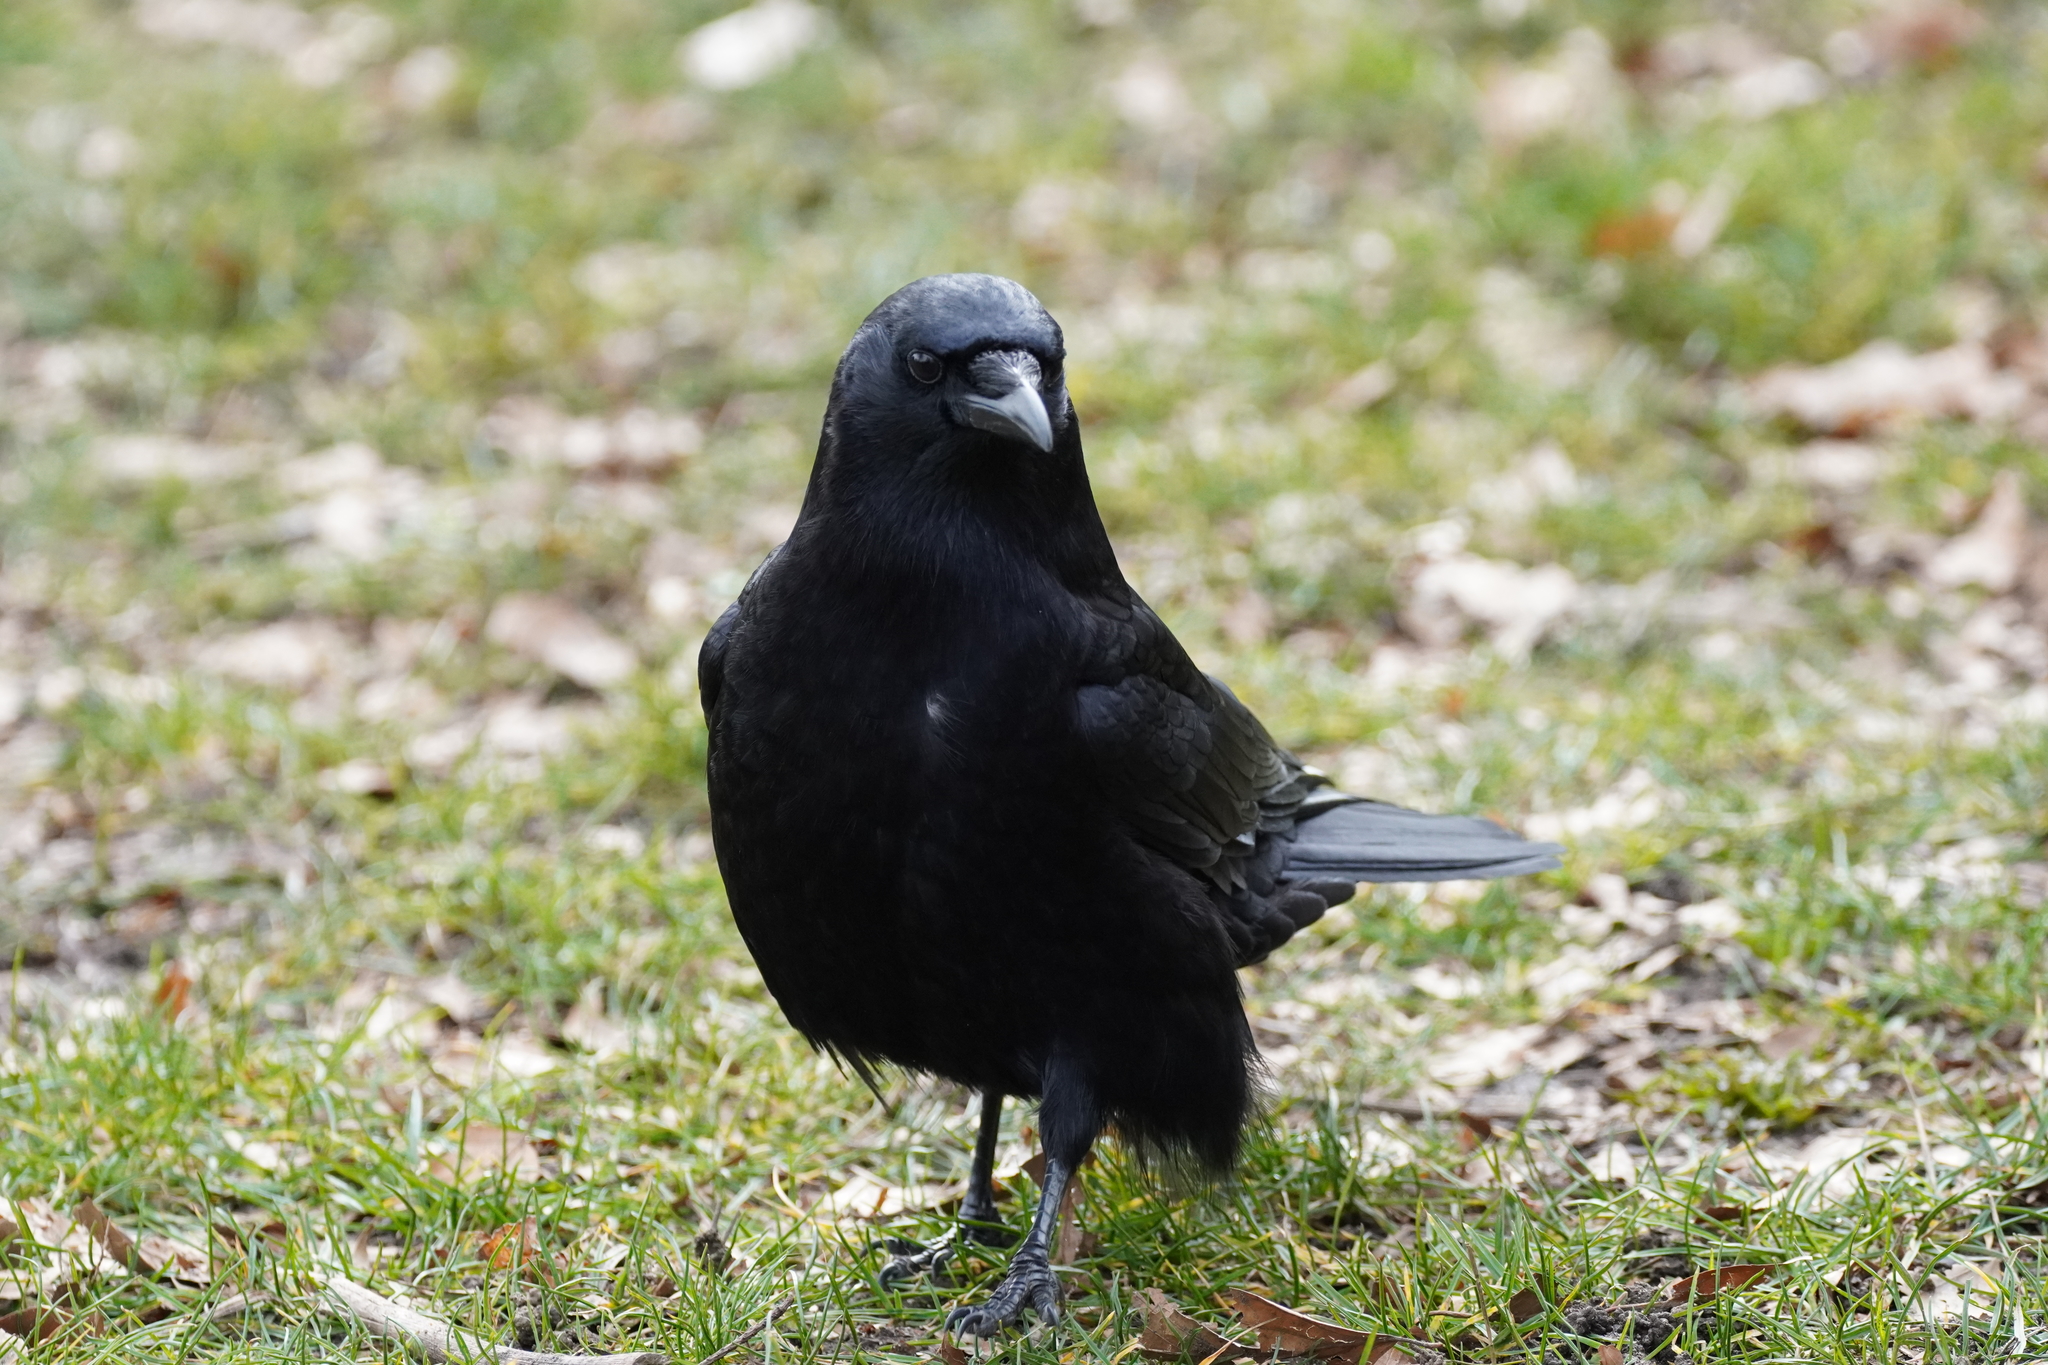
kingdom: Animalia
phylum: Chordata
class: Aves
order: Passeriformes
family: Corvidae
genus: Corvus
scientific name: Corvus brachyrhynchos
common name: American crow
